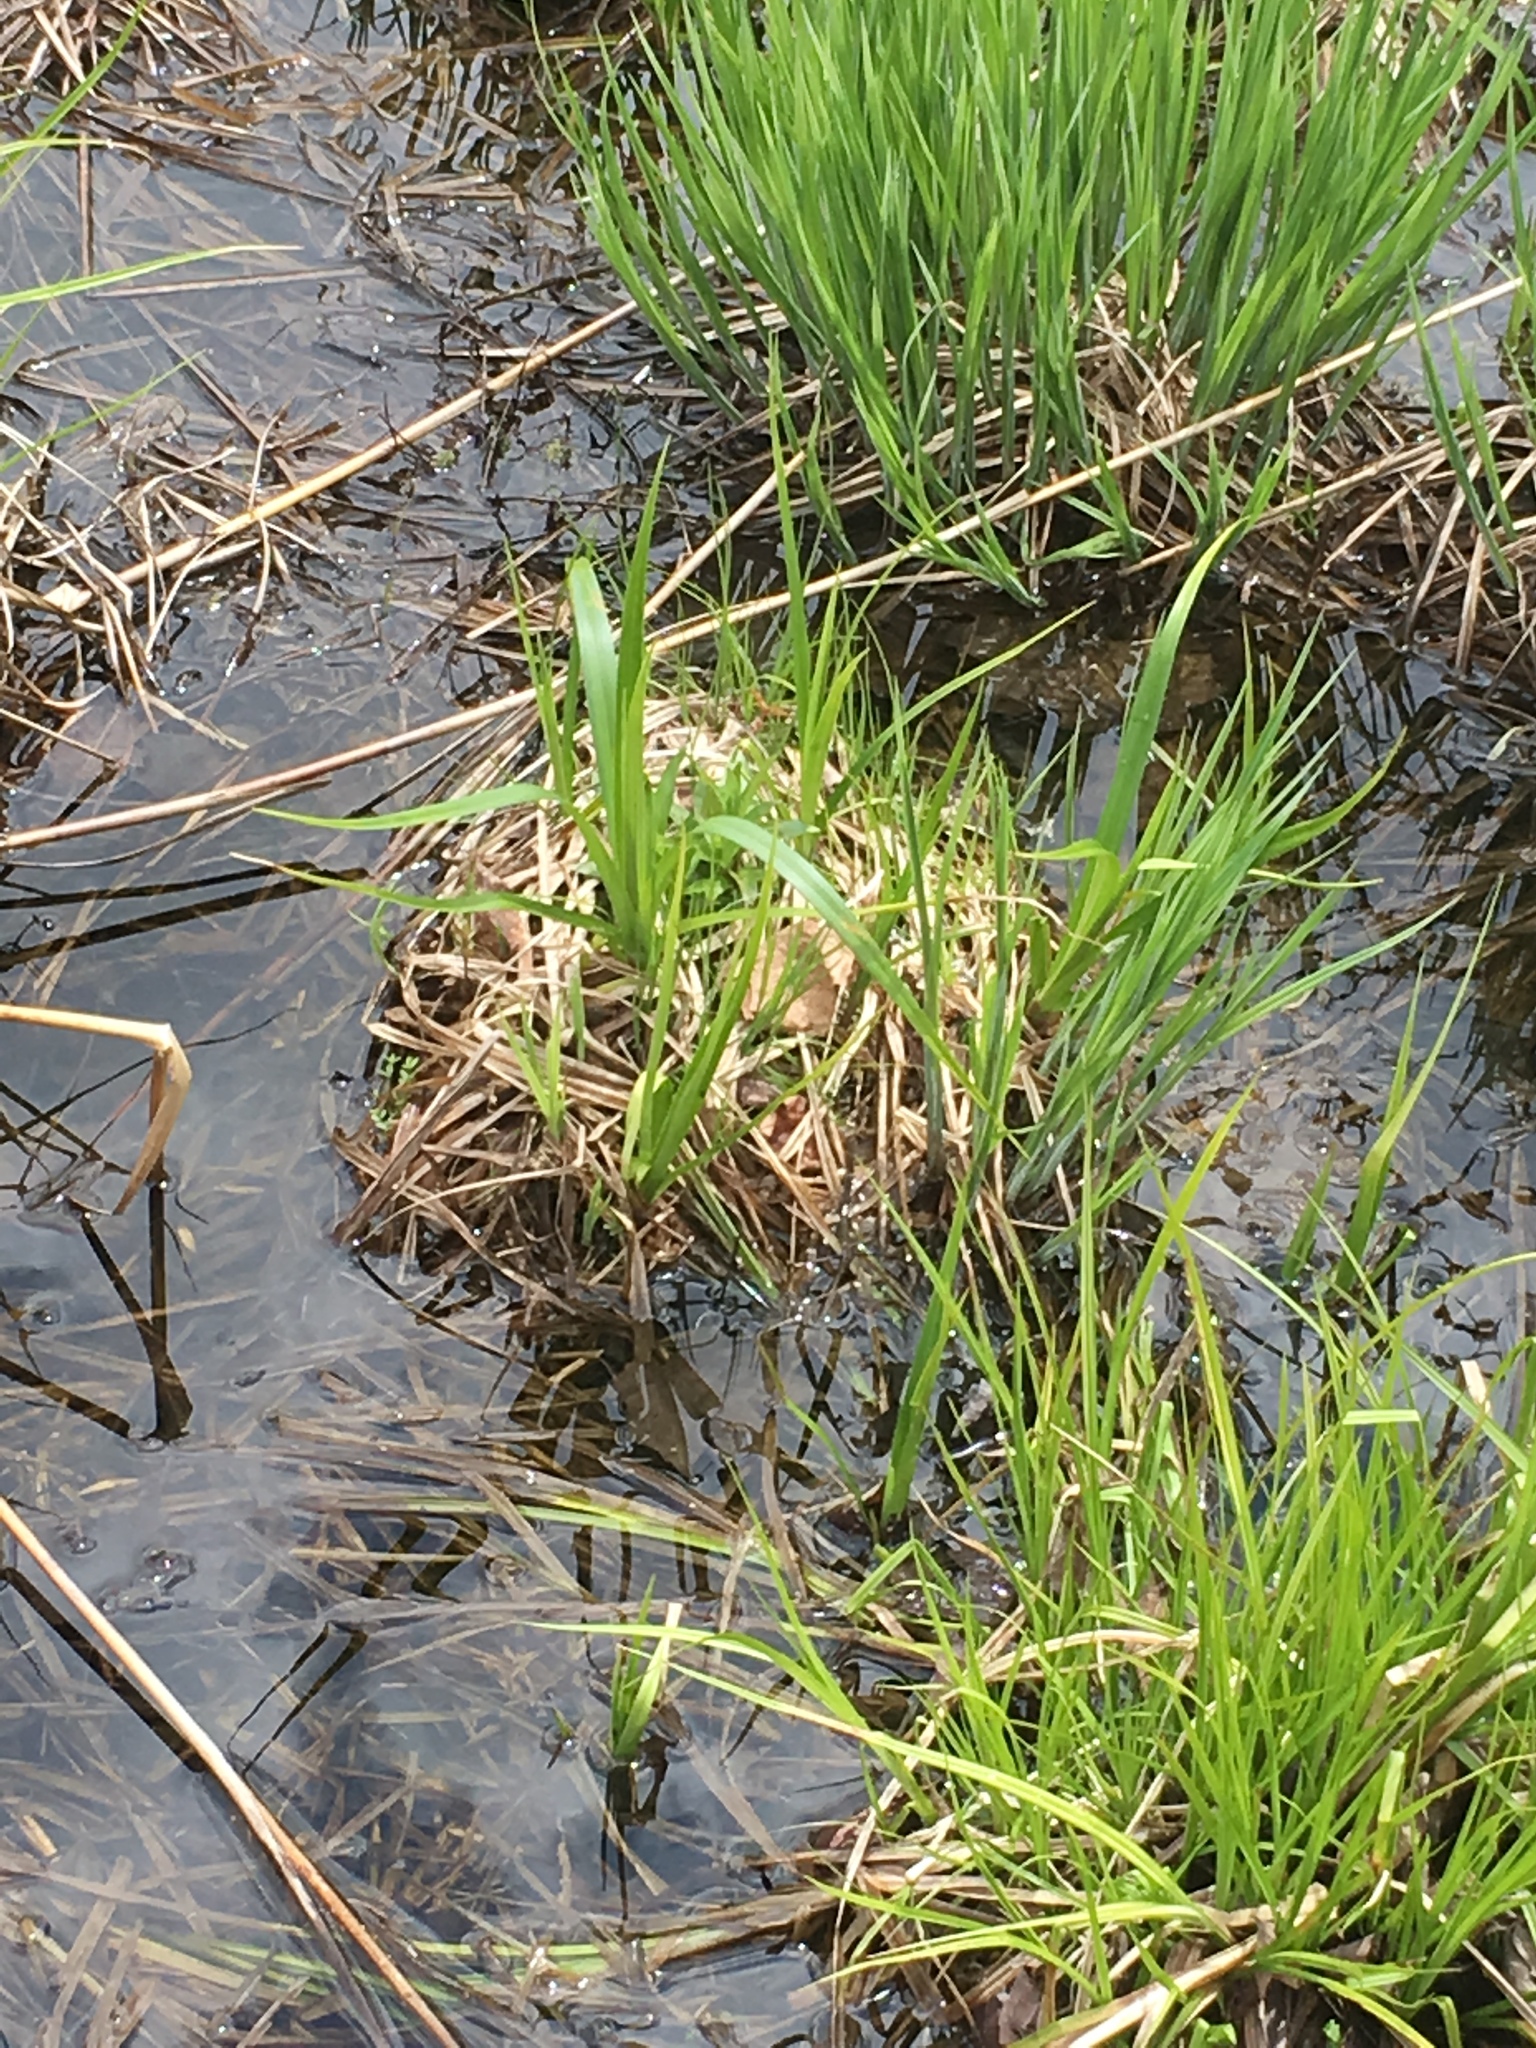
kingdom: Plantae
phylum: Tracheophyta
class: Liliopsida
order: Poales
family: Cyperaceae
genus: Carex
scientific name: Carex utriculata
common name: Beaked sedge
